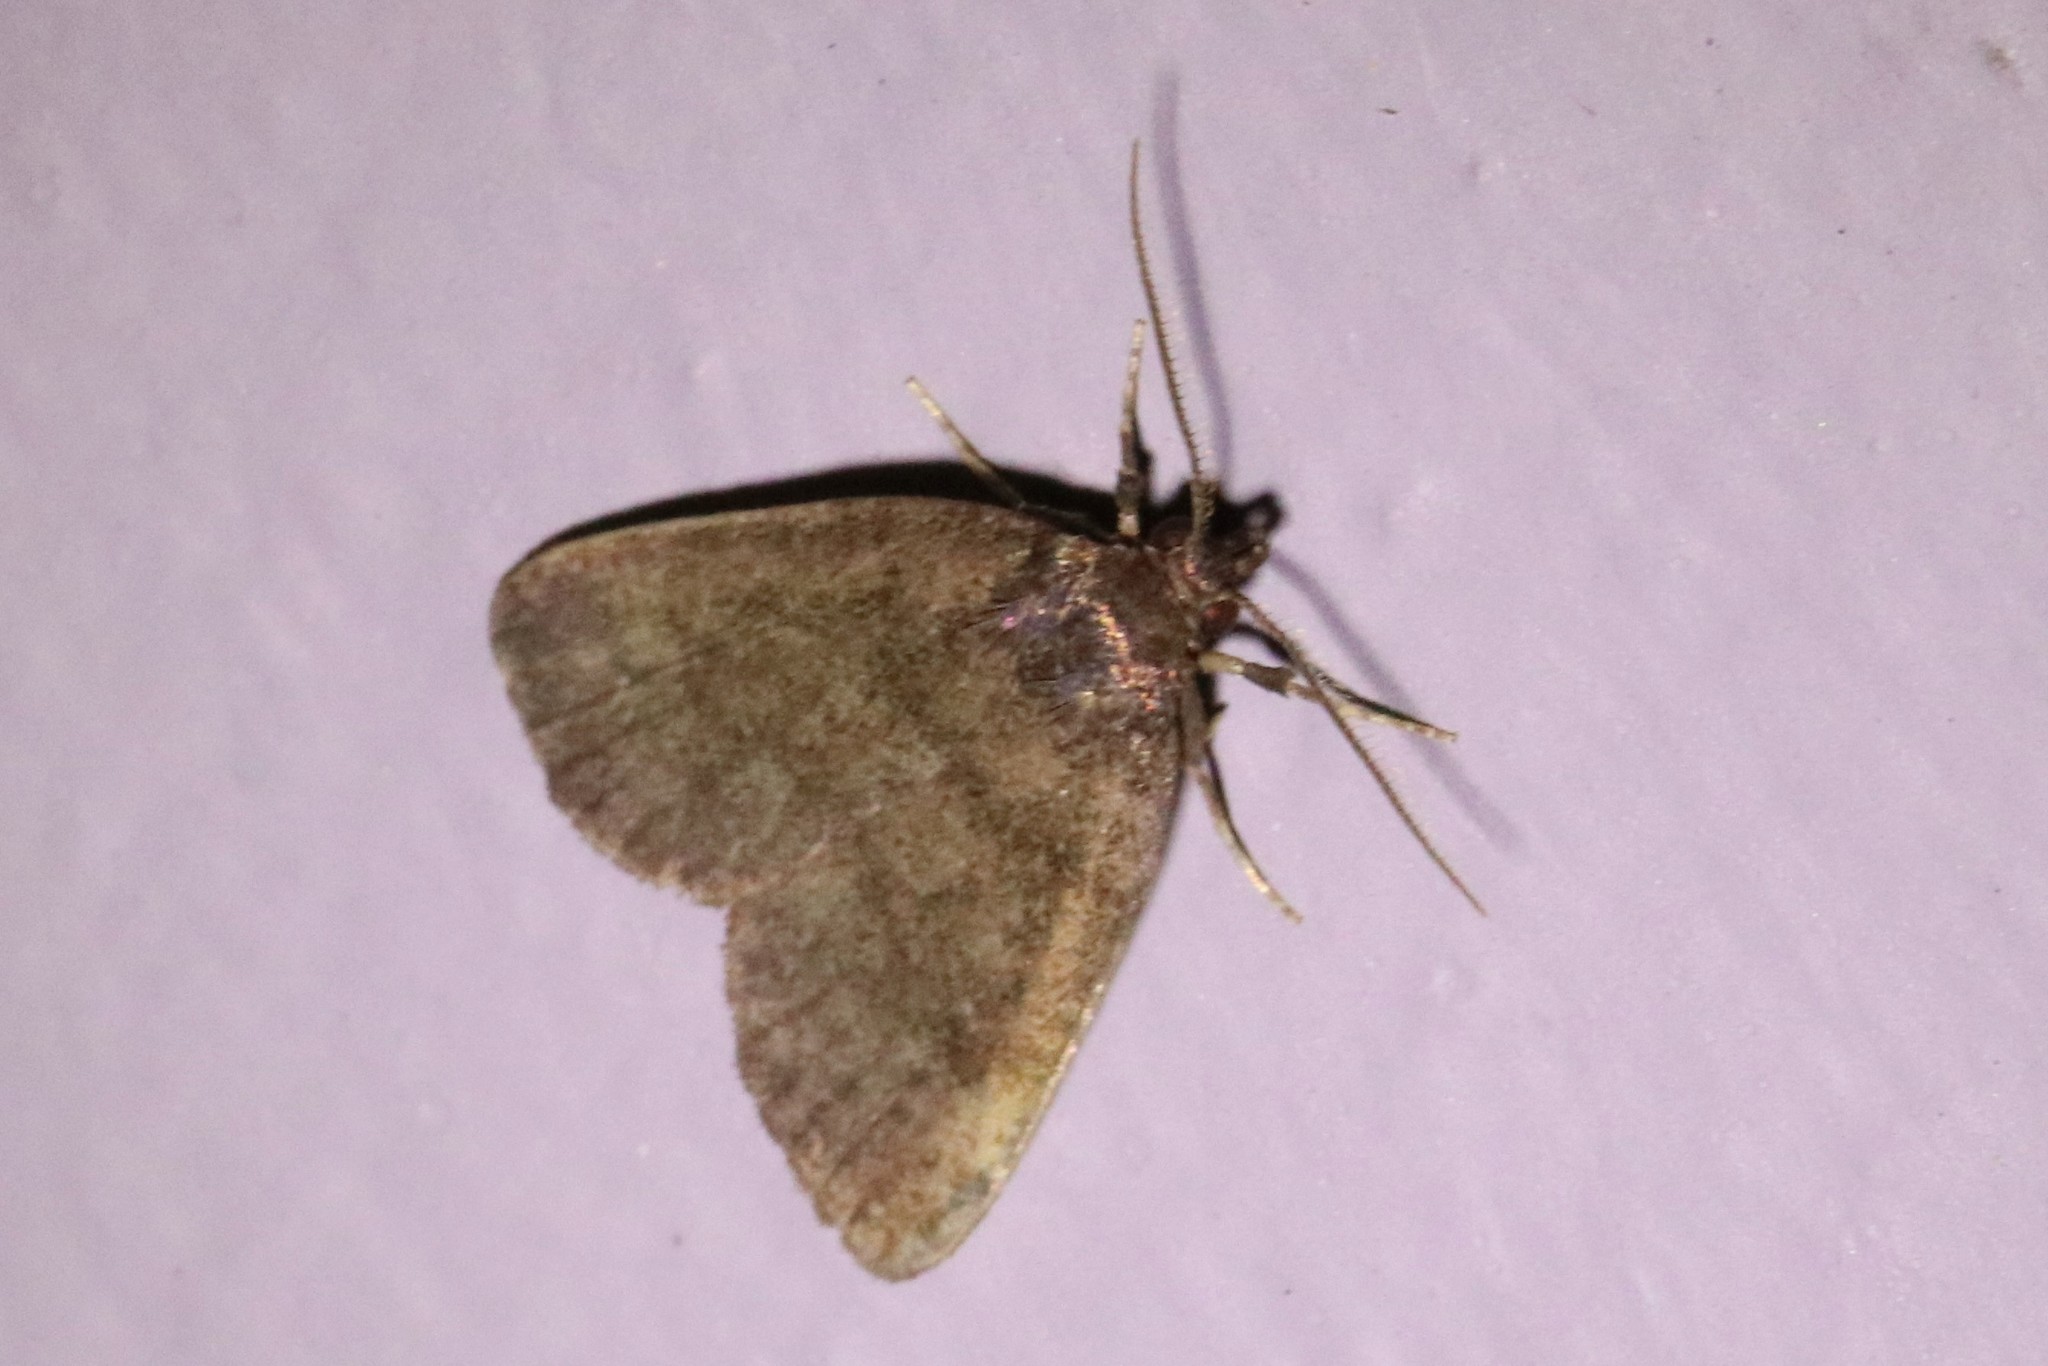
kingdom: Animalia
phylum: Arthropoda
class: Insecta
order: Lepidoptera
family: Erebidae
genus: Idia
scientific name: Idia rotundalis
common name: Rotund idia moth
